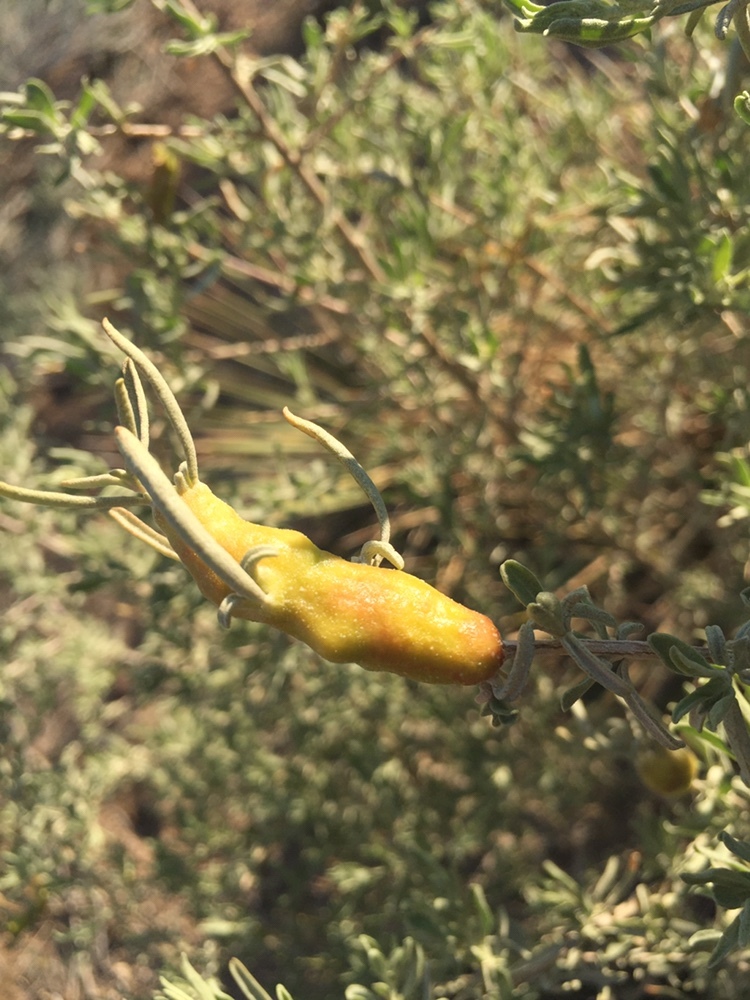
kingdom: Animalia
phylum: Arthropoda
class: Insecta
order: Diptera
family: Cecidomyiidae
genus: Asphondylia
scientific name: Asphondylia atriplicis
